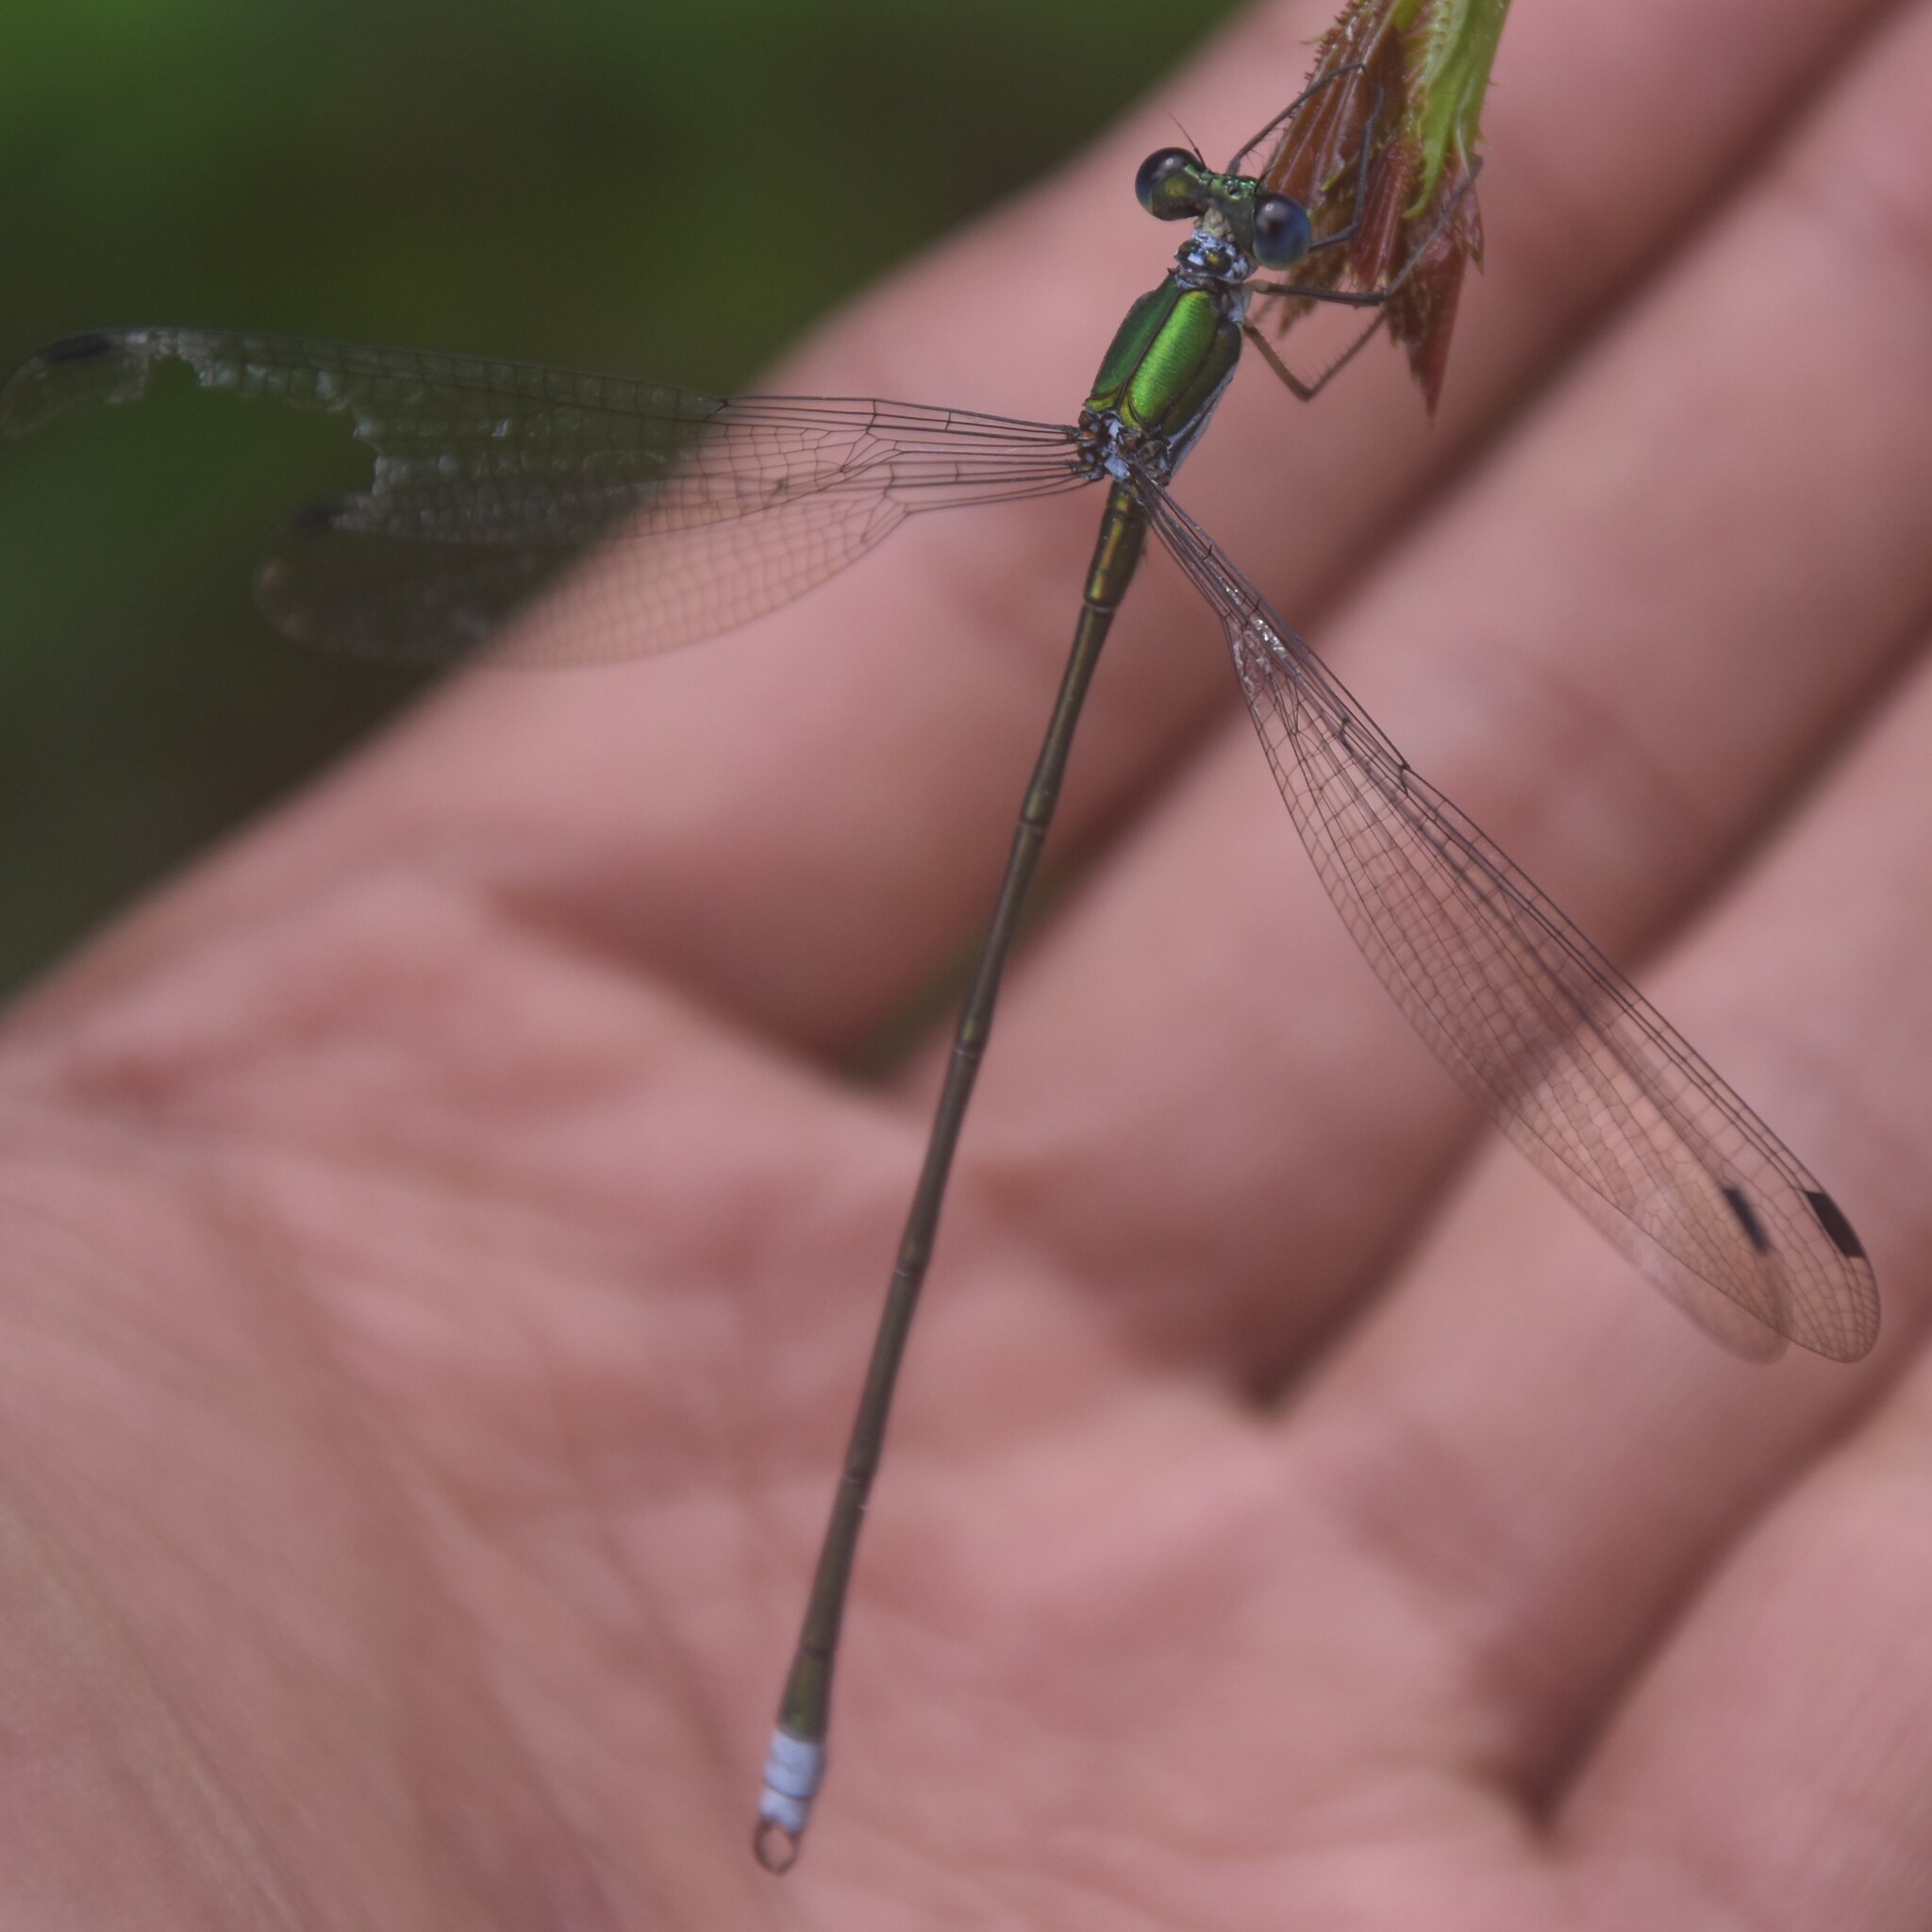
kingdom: Animalia
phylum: Arthropoda
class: Insecta
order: Odonata
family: Synlestidae
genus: Megalestes
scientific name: Megalestes major
